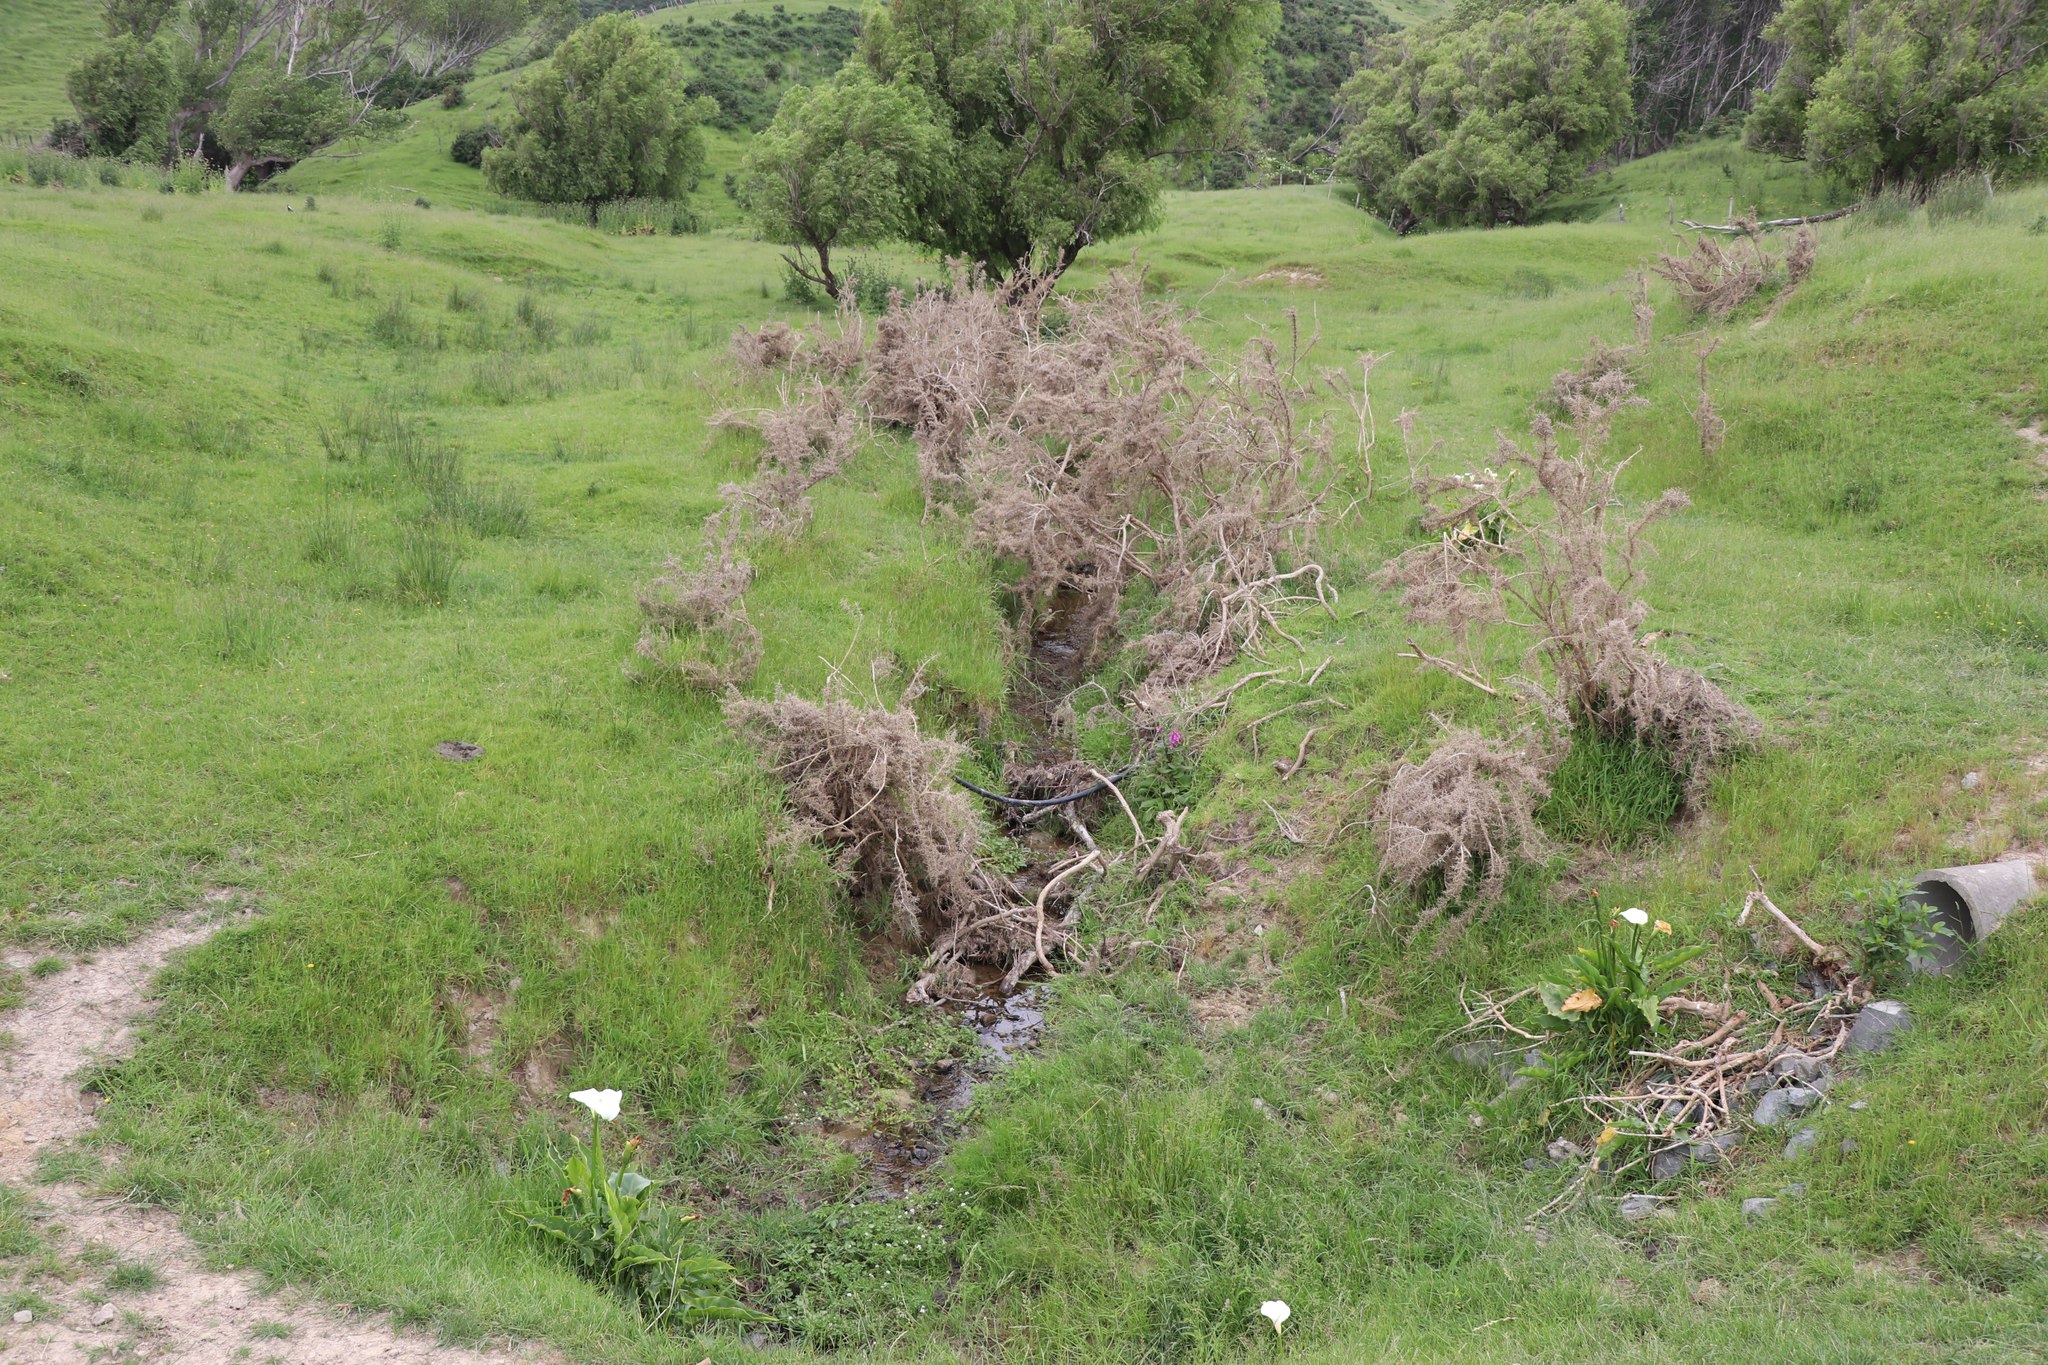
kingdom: Plantae
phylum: Tracheophyta
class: Magnoliopsida
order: Fabales
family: Fabaceae
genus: Ulex
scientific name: Ulex europaeus
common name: Common gorse
